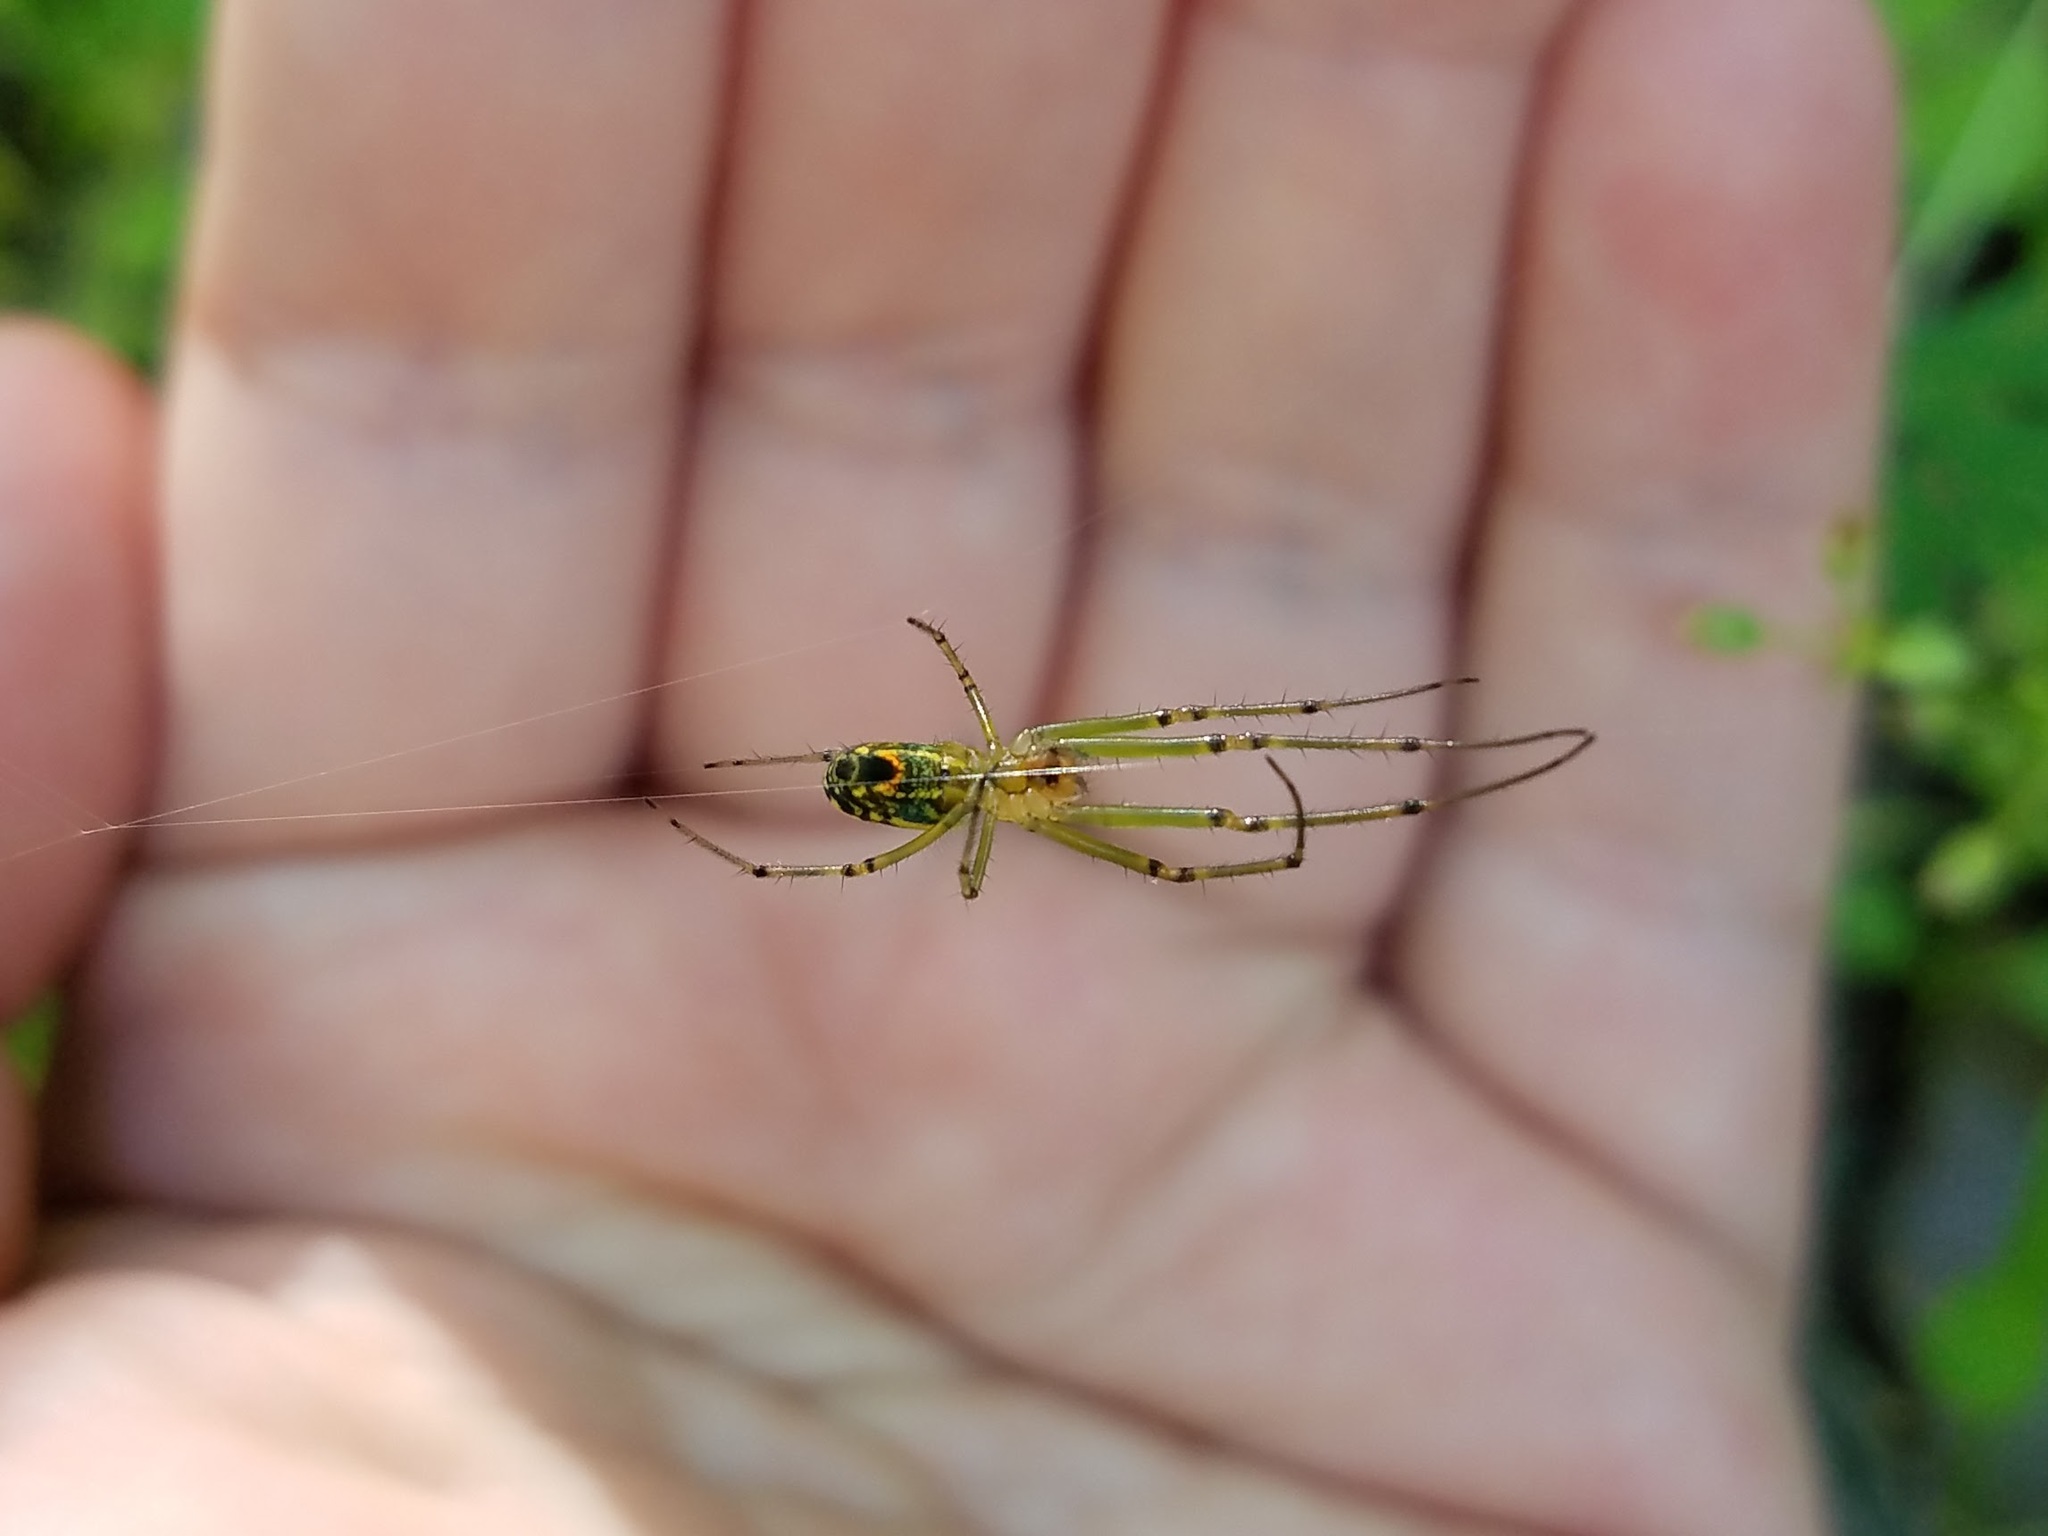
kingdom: Animalia
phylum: Arthropoda
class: Arachnida
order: Araneae
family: Tetragnathidae
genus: Leucauge
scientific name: Leucauge venusta
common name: Longjawed orb weavers
